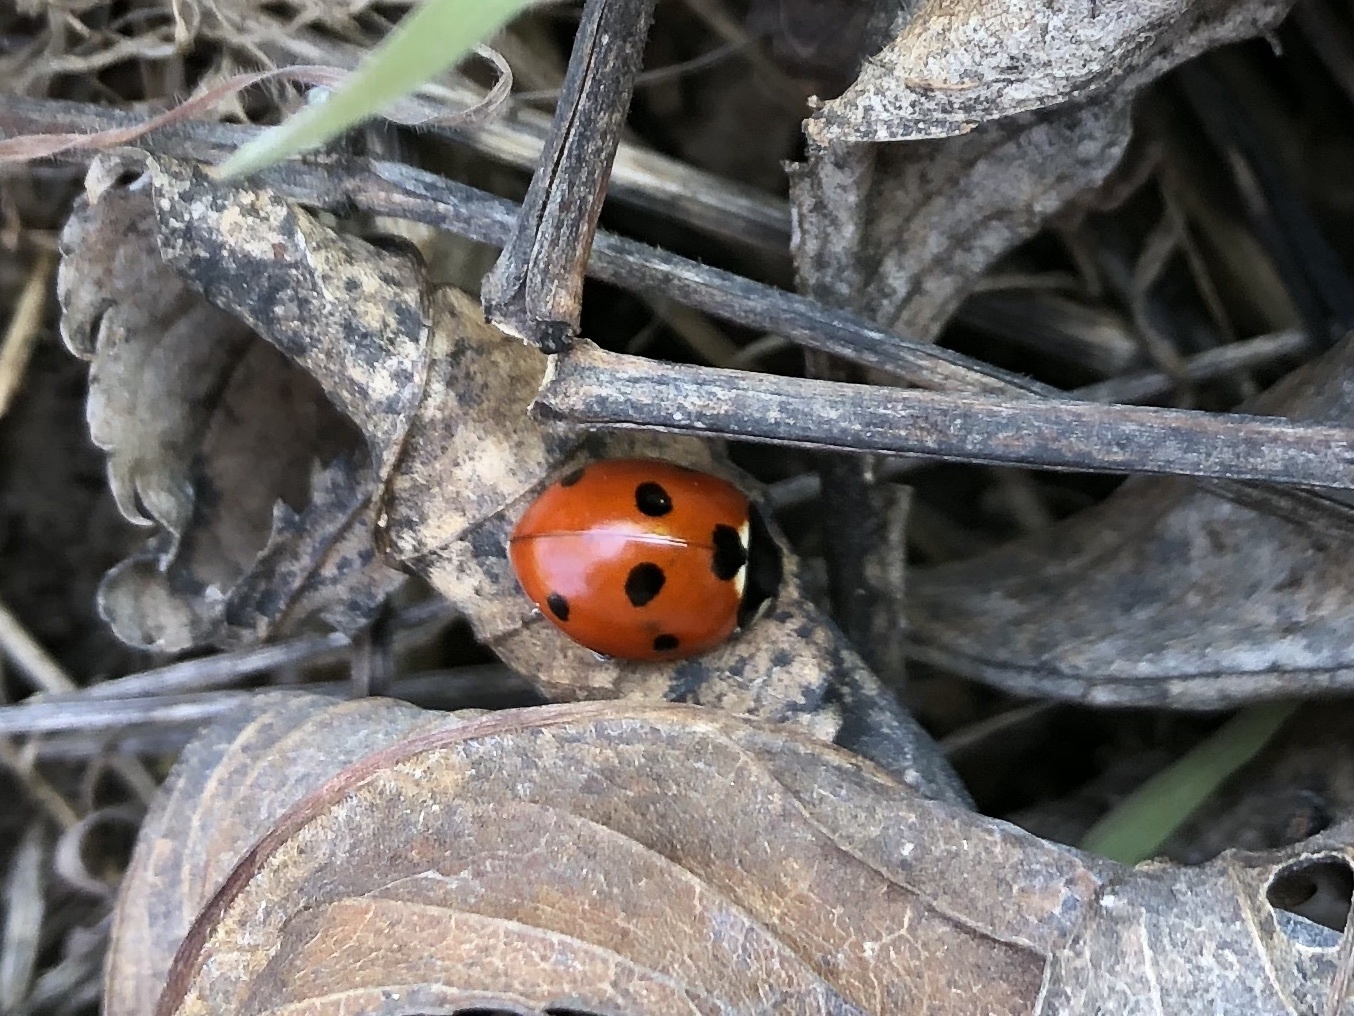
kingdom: Animalia
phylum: Arthropoda
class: Insecta
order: Coleoptera
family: Coccinellidae
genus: Coccinella
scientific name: Coccinella septempunctata
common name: Sevenspotted lady beetle
